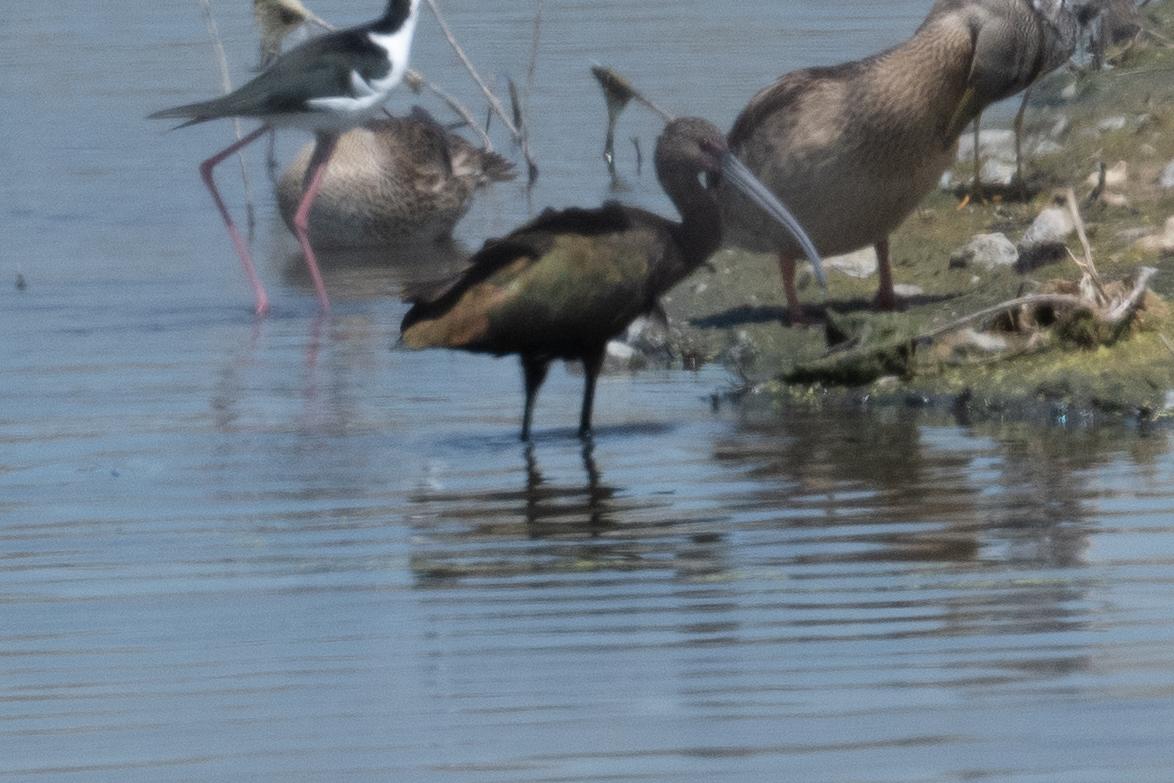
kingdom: Animalia
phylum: Chordata
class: Aves
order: Pelecaniformes
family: Threskiornithidae
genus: Plegadis
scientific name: Plegadis chihi
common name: White-faced ibis
